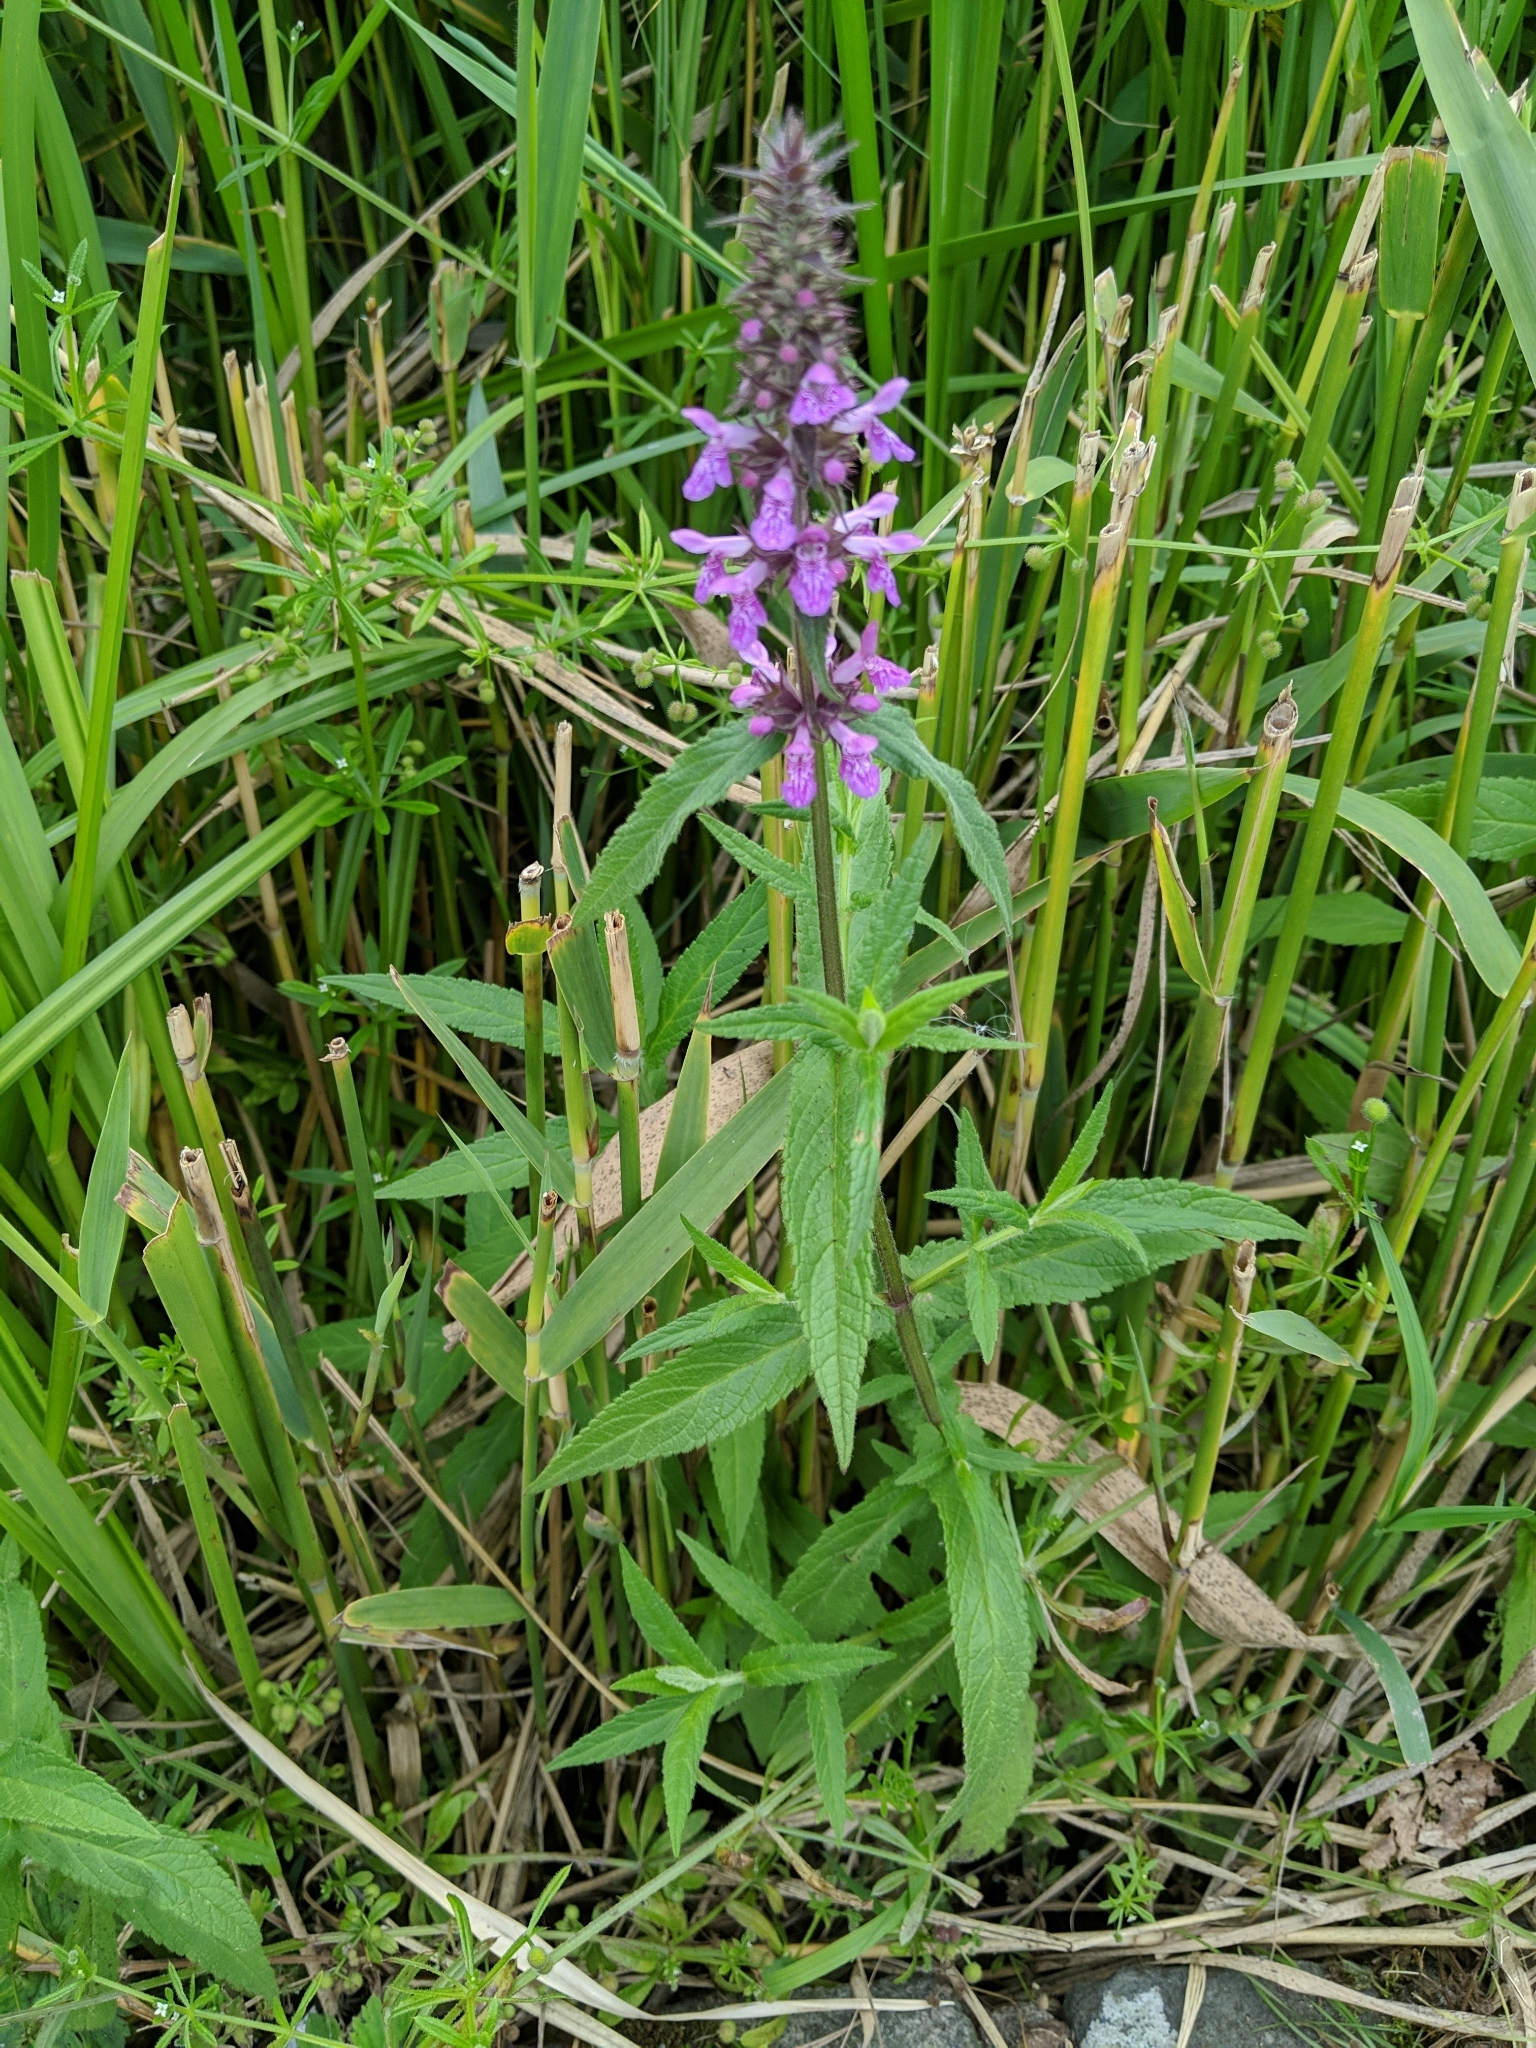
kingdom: Plantae
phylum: Tracheophyta
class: Magnoliopsida
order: Lamiales
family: Lamiaceae
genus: Stachys
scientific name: Stachys palustris
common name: Marsh woundwort
